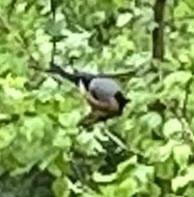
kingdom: Animalia
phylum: Chordata
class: Aves
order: Passeriformes
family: Fringillidae
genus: Pyrrhula
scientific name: Pyrrhula pyrrhula
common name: Eurasian bullfinch
